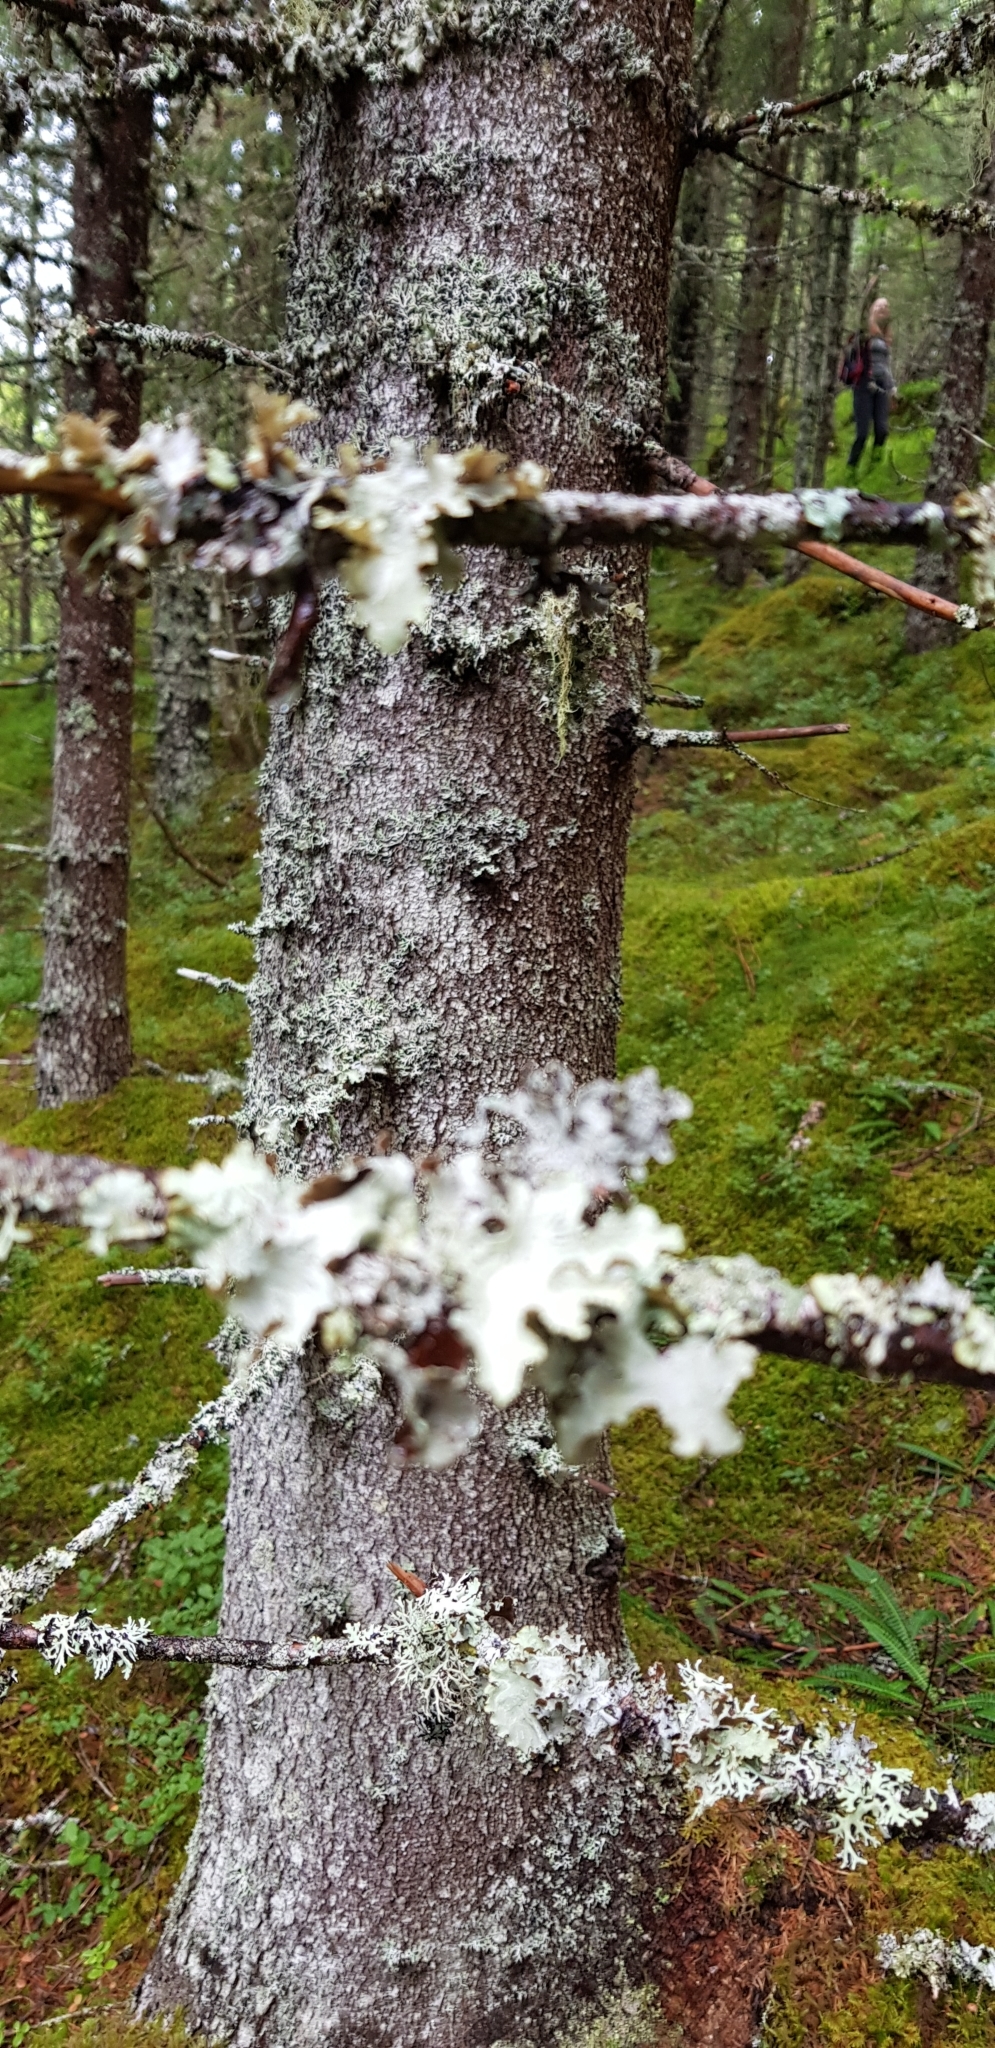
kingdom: Fungi
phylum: Ascomycota
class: Lecanoromycetes
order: Lecanorales
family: Parmeliaceae
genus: Platismatia
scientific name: Platismatia glauca
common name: Varied rag lichen
